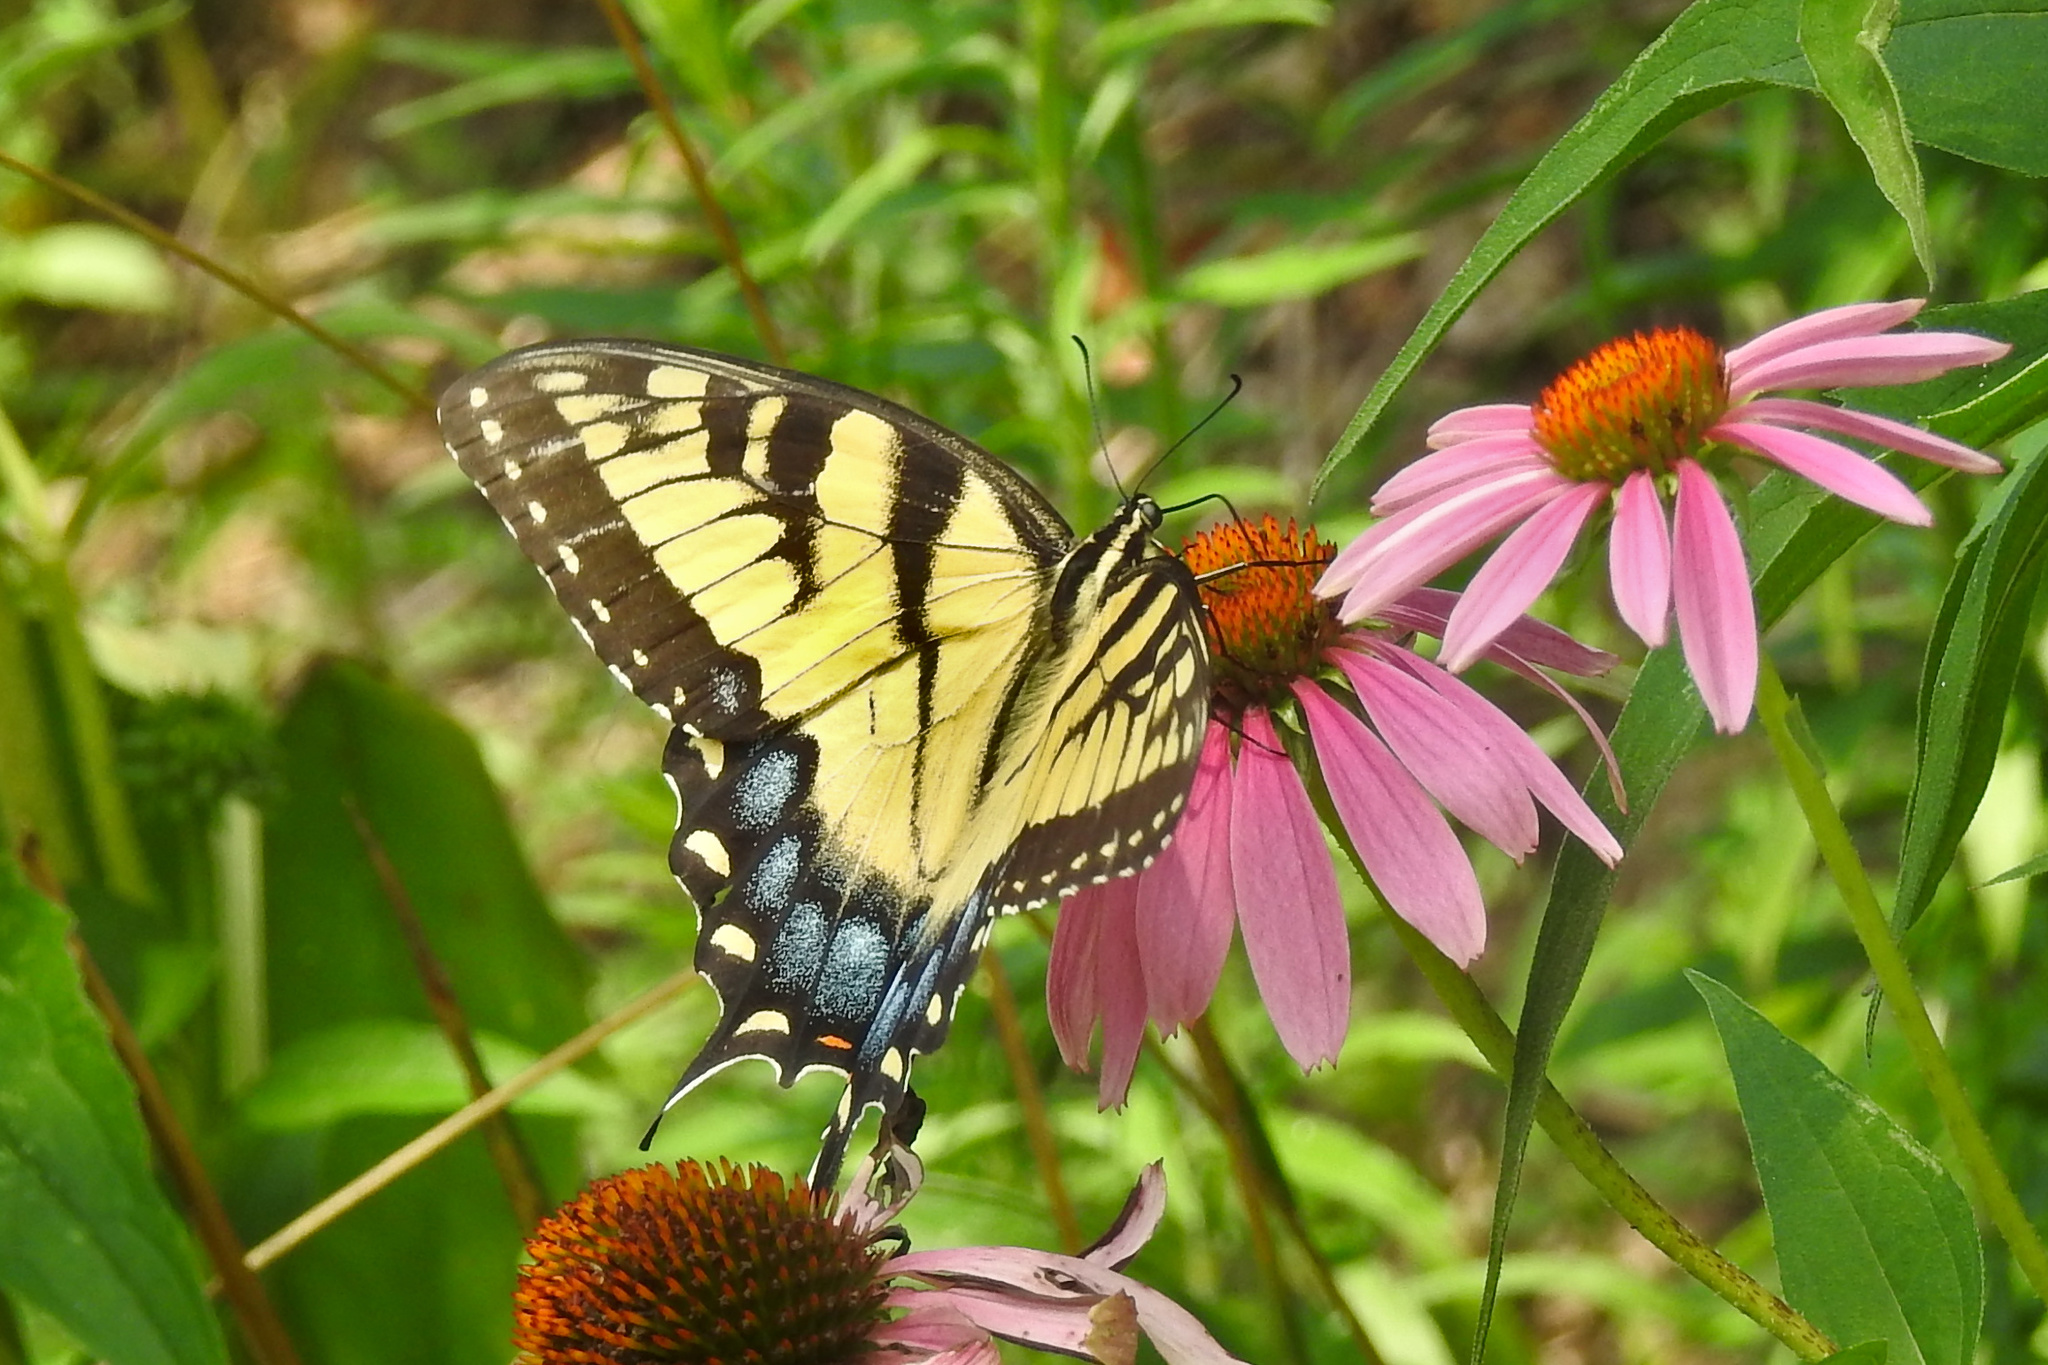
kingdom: Animalia
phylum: Arthropoda
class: Insecta
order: Lepidoptera
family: Papilionidae
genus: Papilio
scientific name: Papilio glaucus
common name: Tiger swallowtail
